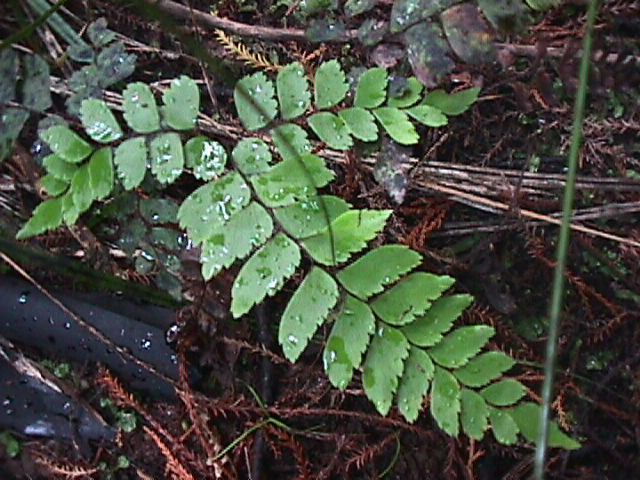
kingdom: Plantae
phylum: Tracheophyta
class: Polypodiopsida
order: Polypodiales
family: Pteridaceae
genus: Adiantum
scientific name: Adiantum cunninghamii
